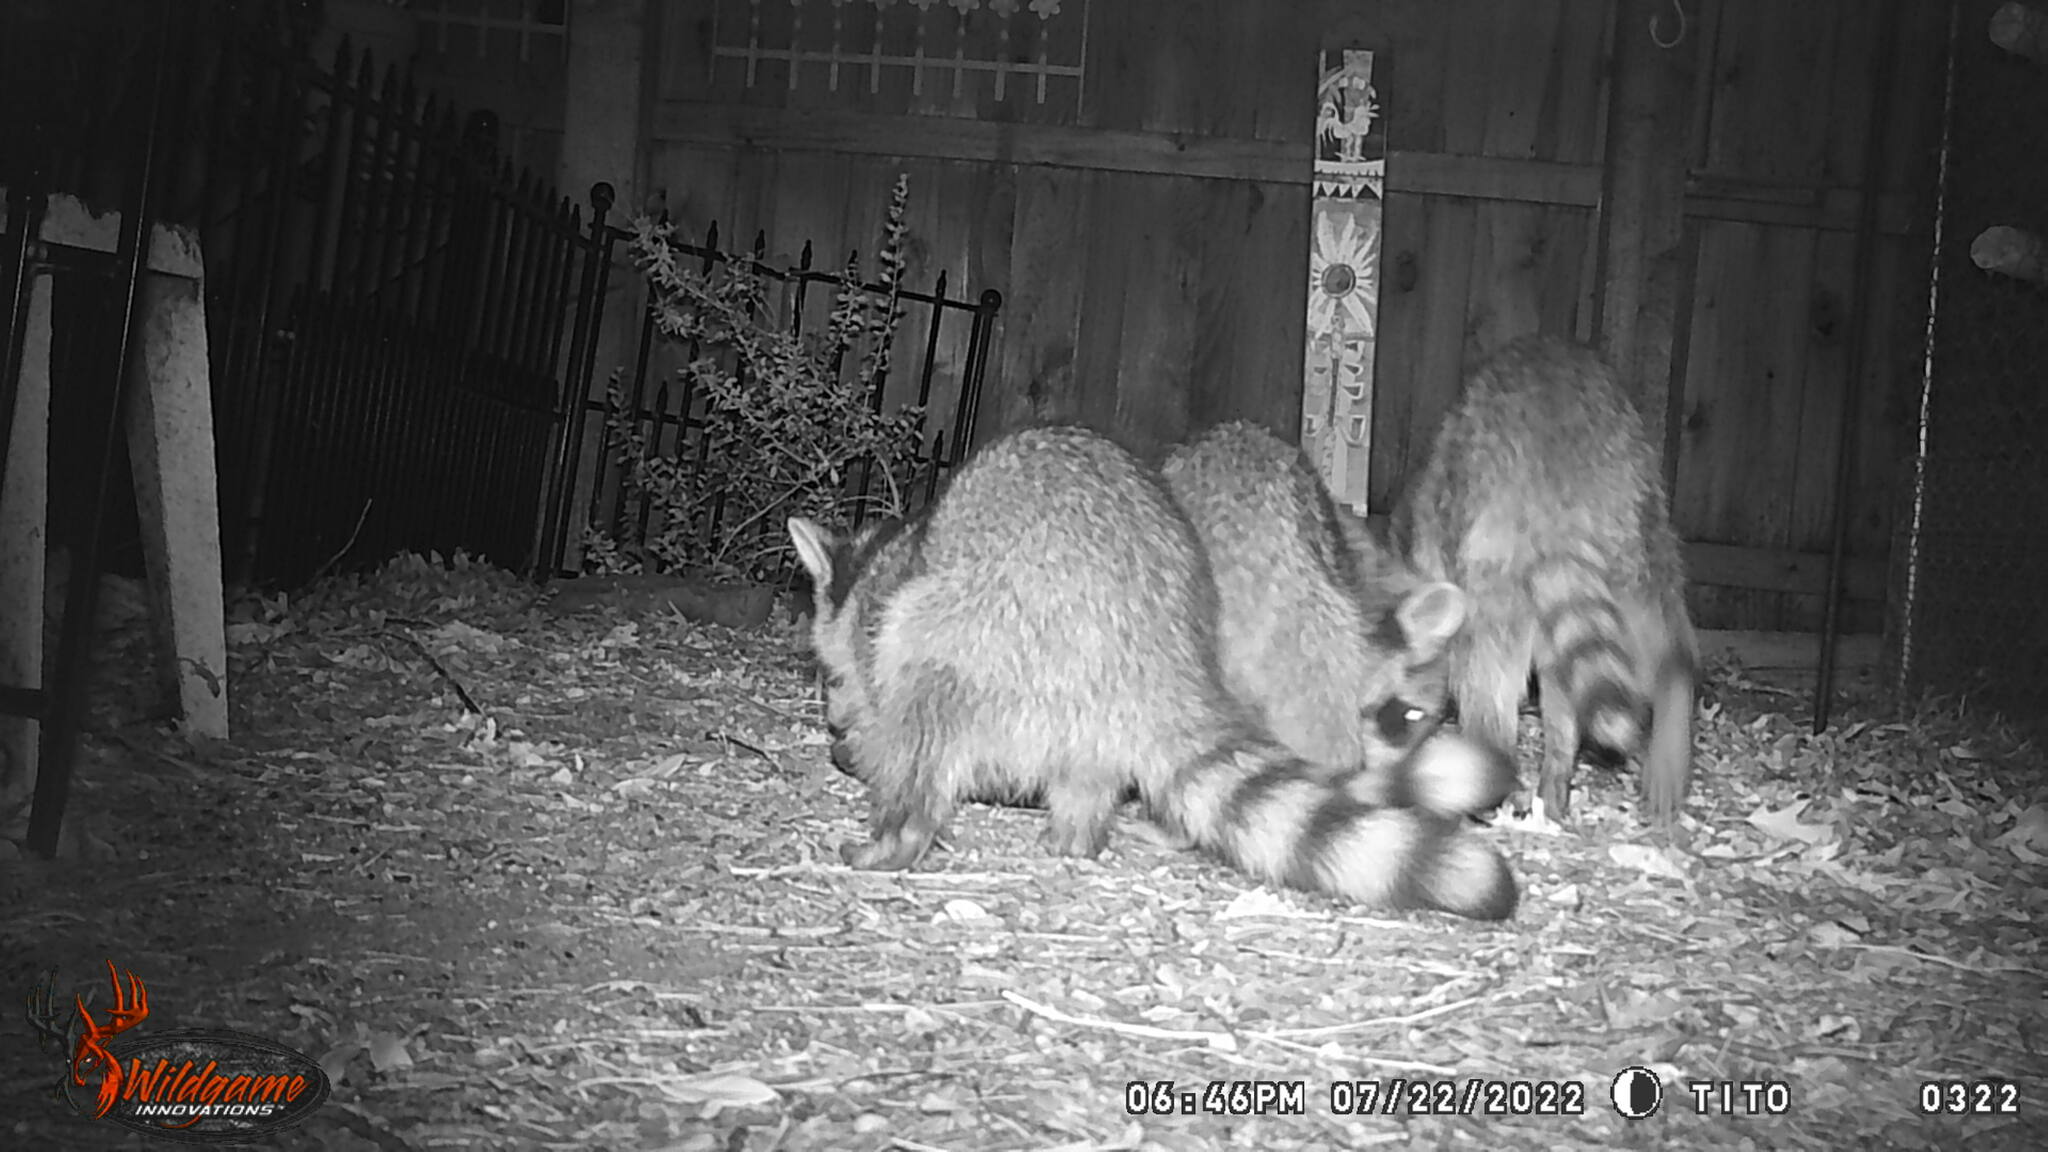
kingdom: Animalia
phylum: Chordata
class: Mammalia
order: Carnivora
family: Procyonidae
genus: Procyon
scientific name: Procyon lotor
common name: Raccoon
